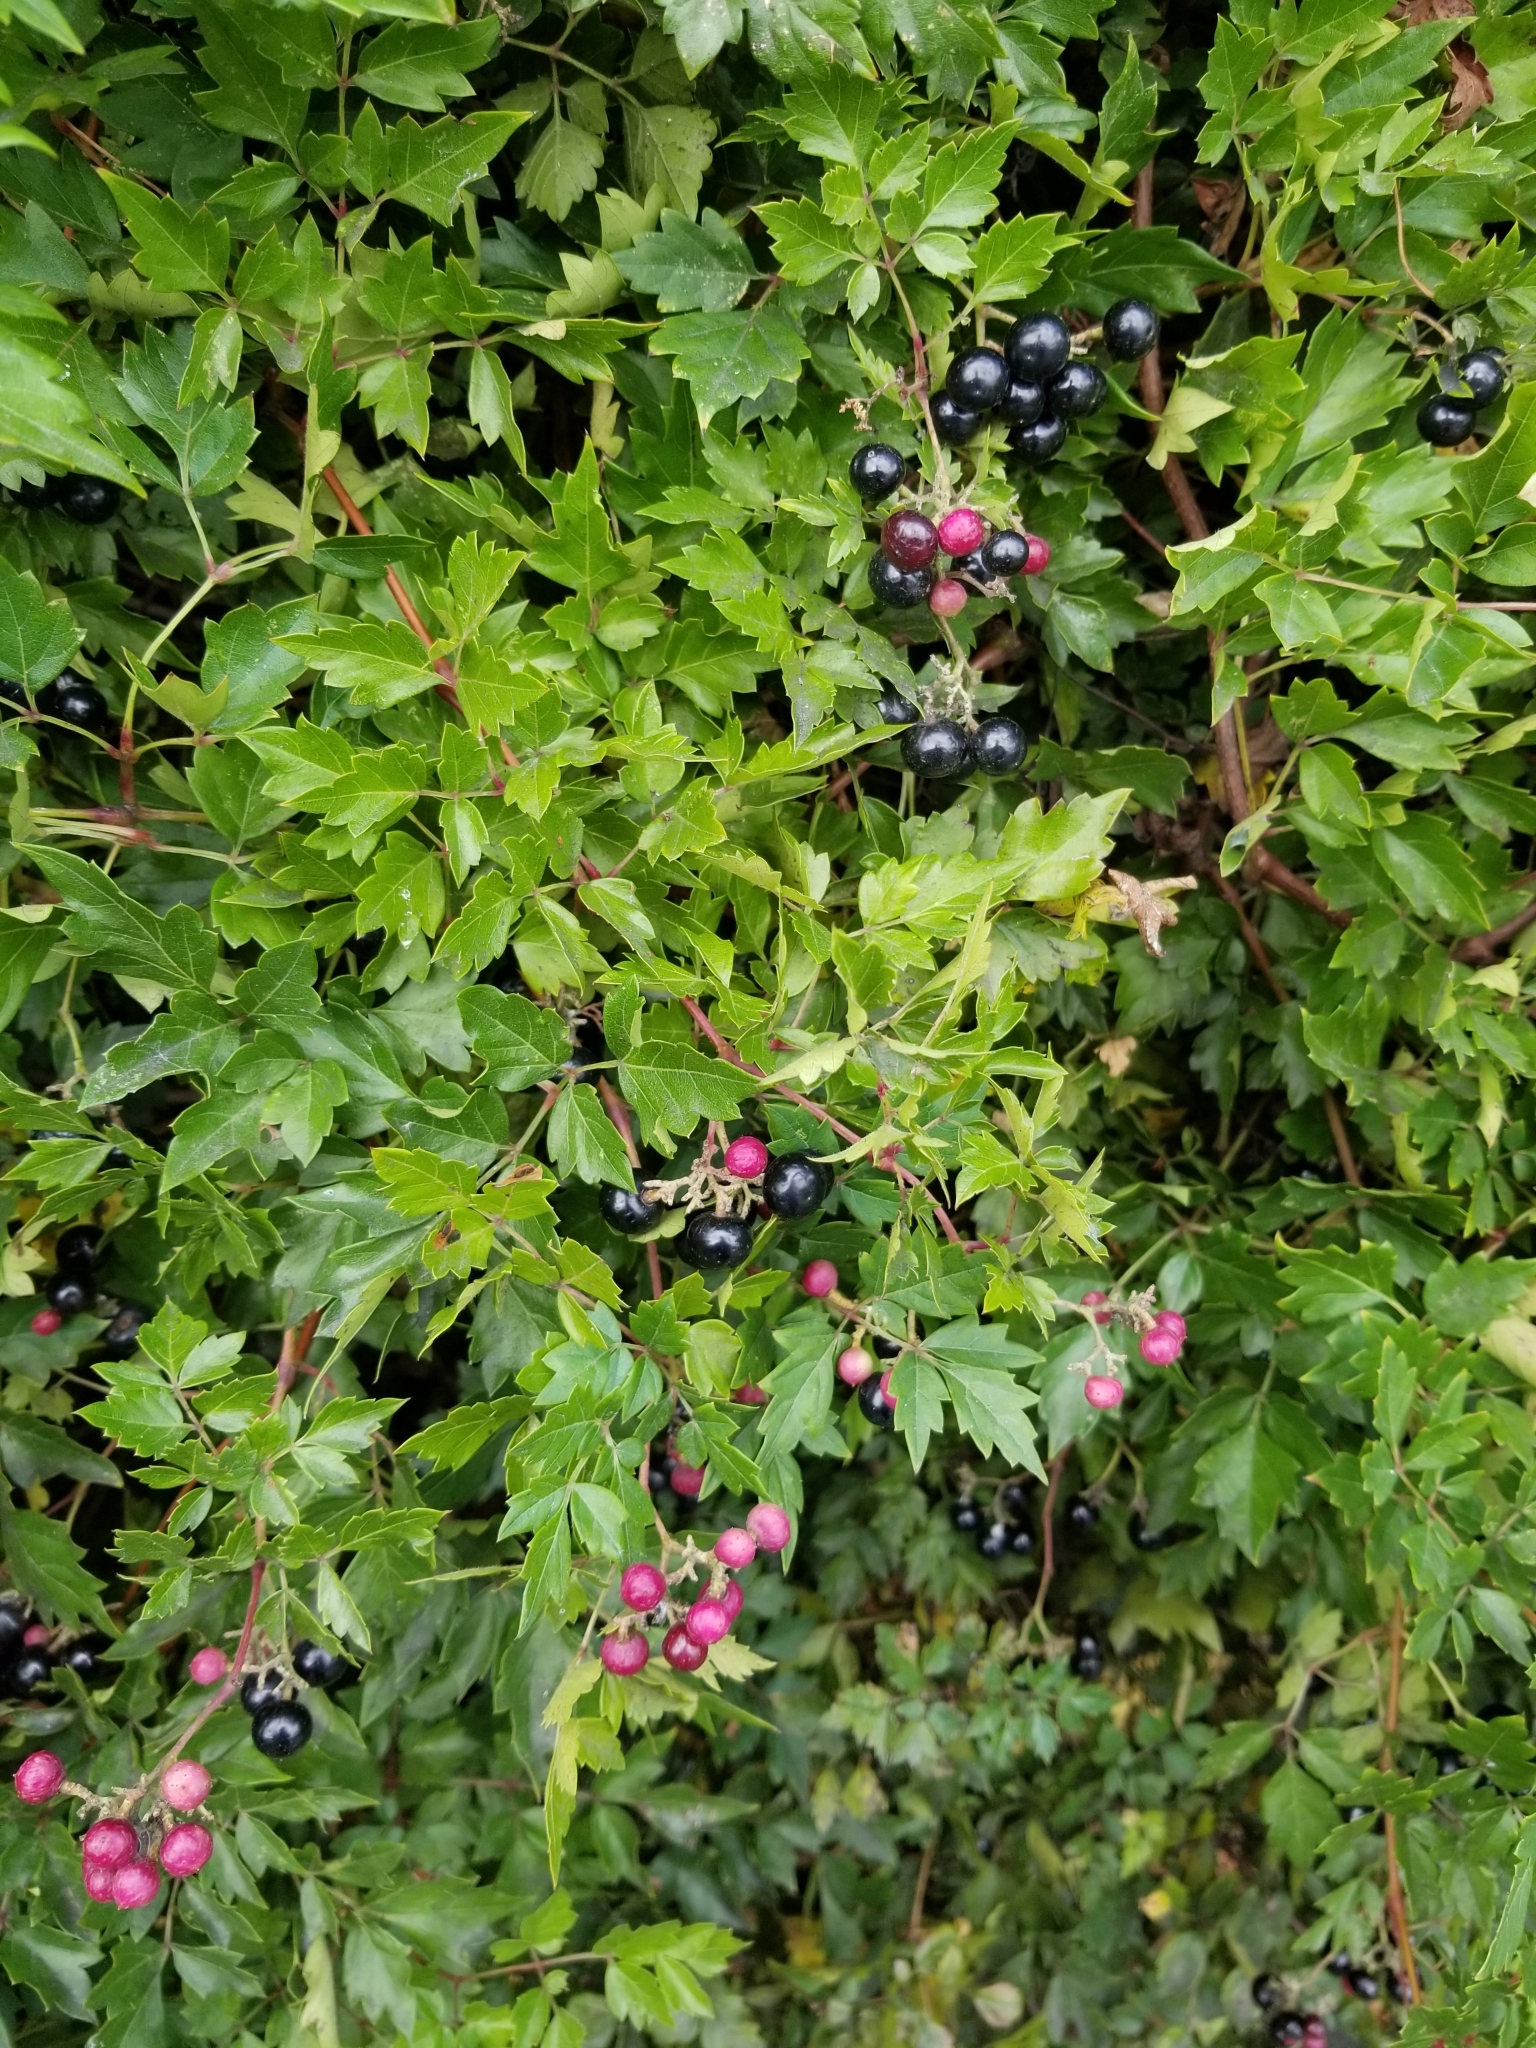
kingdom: Plantae
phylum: Tracheophyta
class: Magnoliopsida
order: Vitales
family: Vitaceae
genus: Nekemias
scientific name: Nekemias arborea
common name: Peppervine
